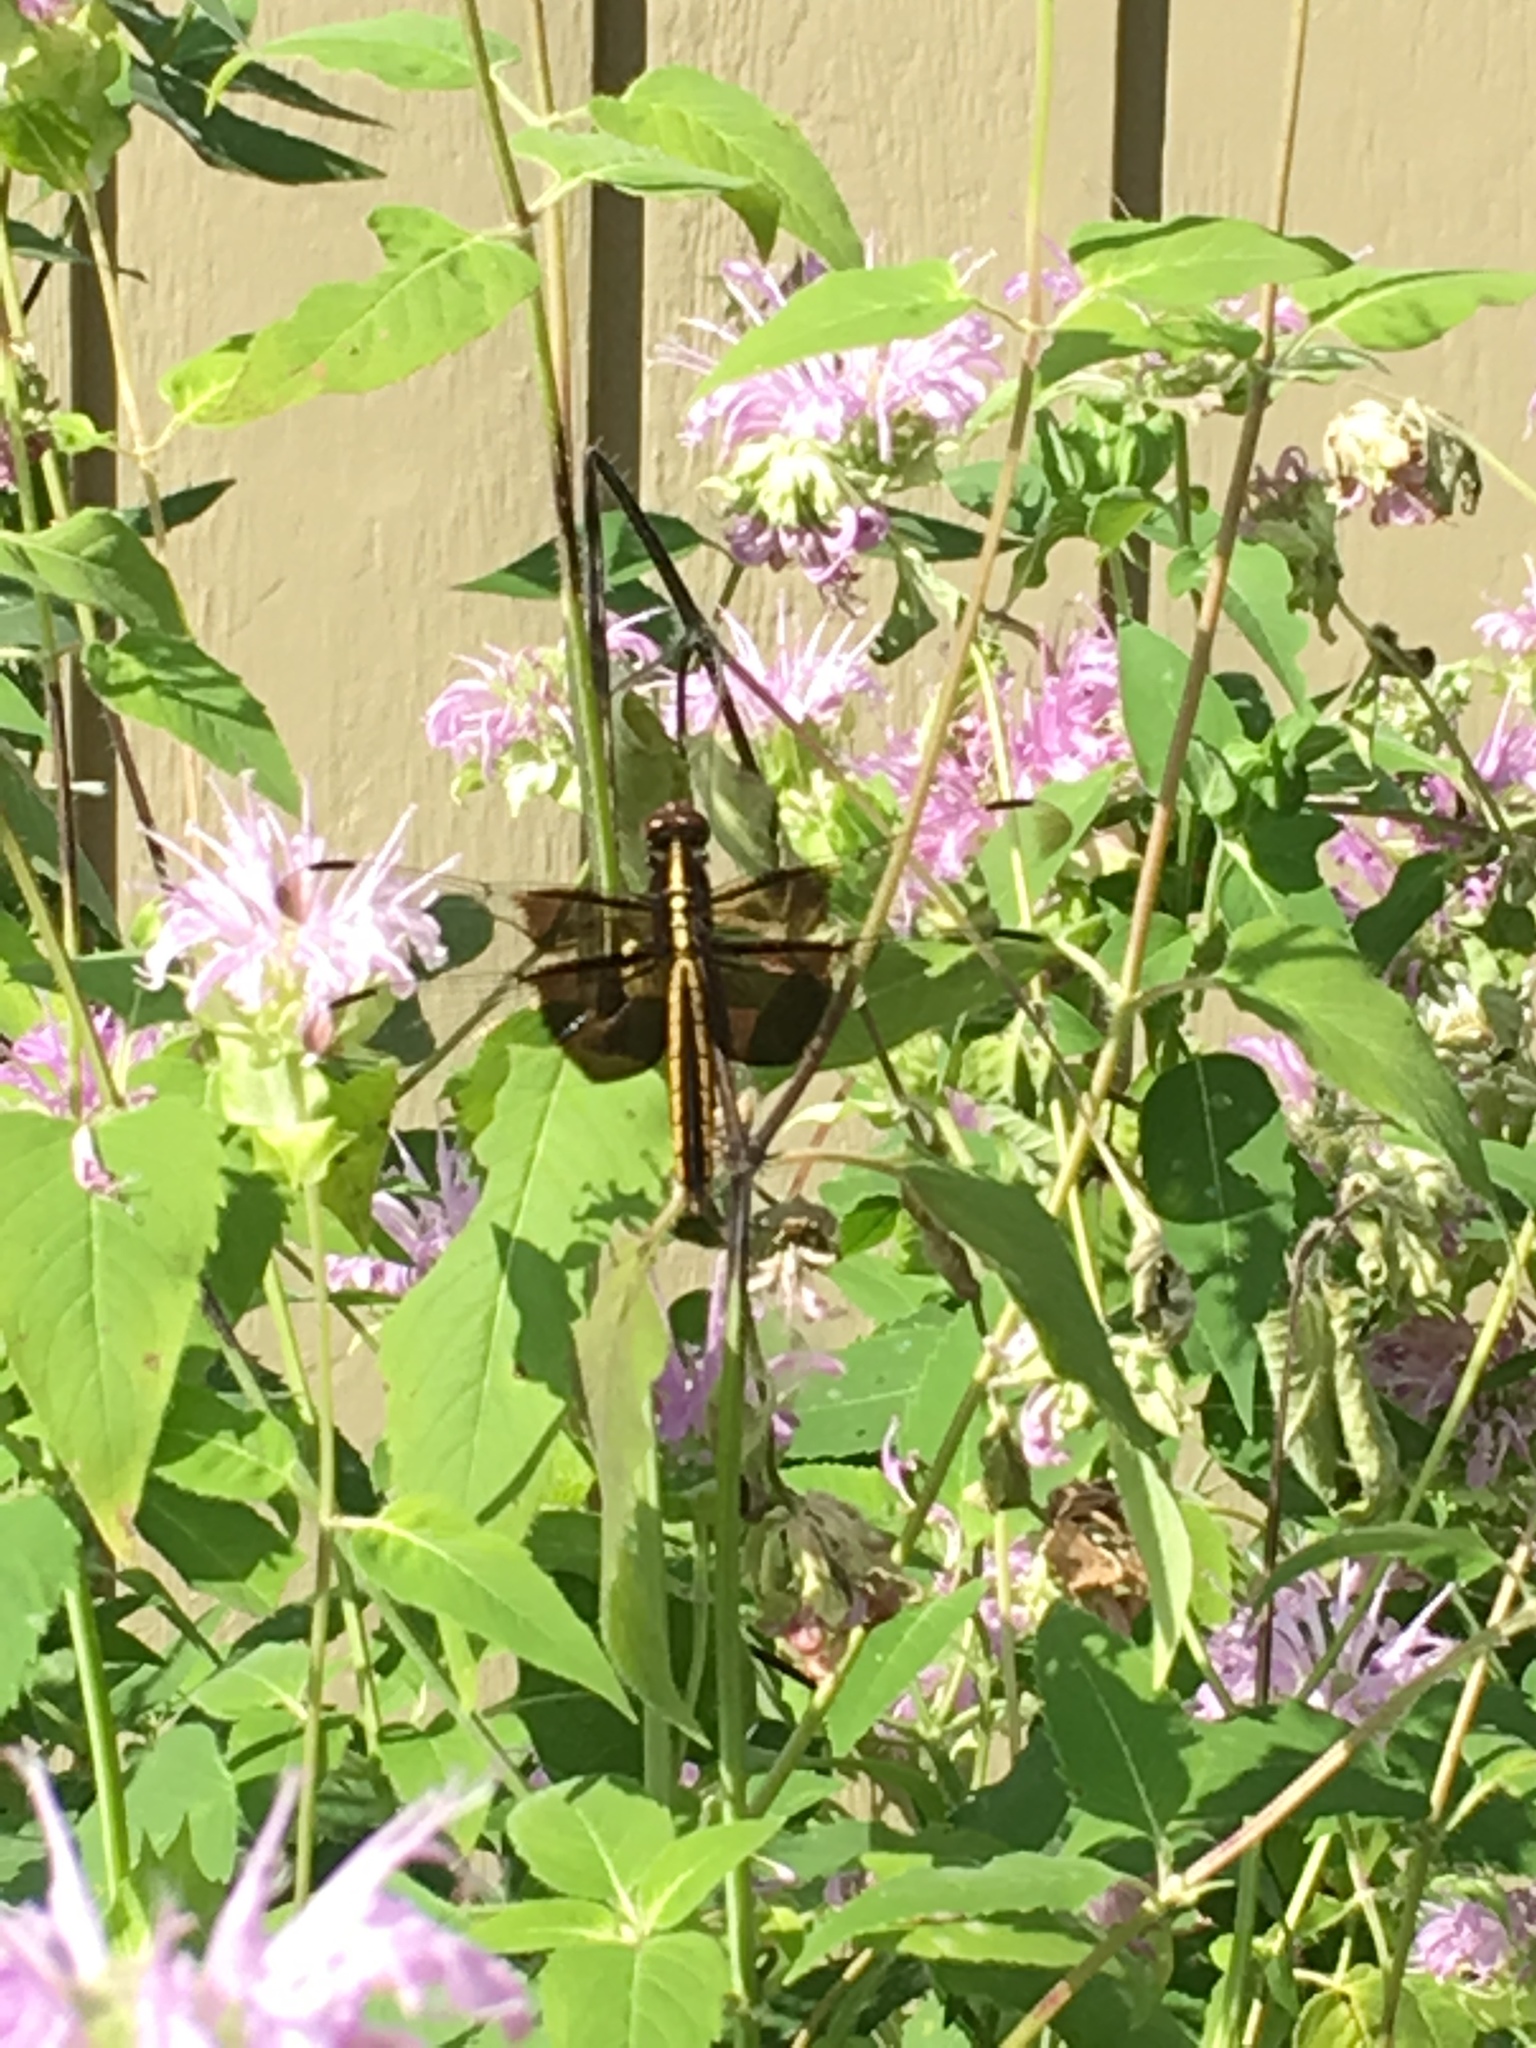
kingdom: Animalia
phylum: Arthropoda
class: Insecta
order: Odonata
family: Libellulidae
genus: Libellula
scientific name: Libellula luctuosa
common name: Widow skimmer
